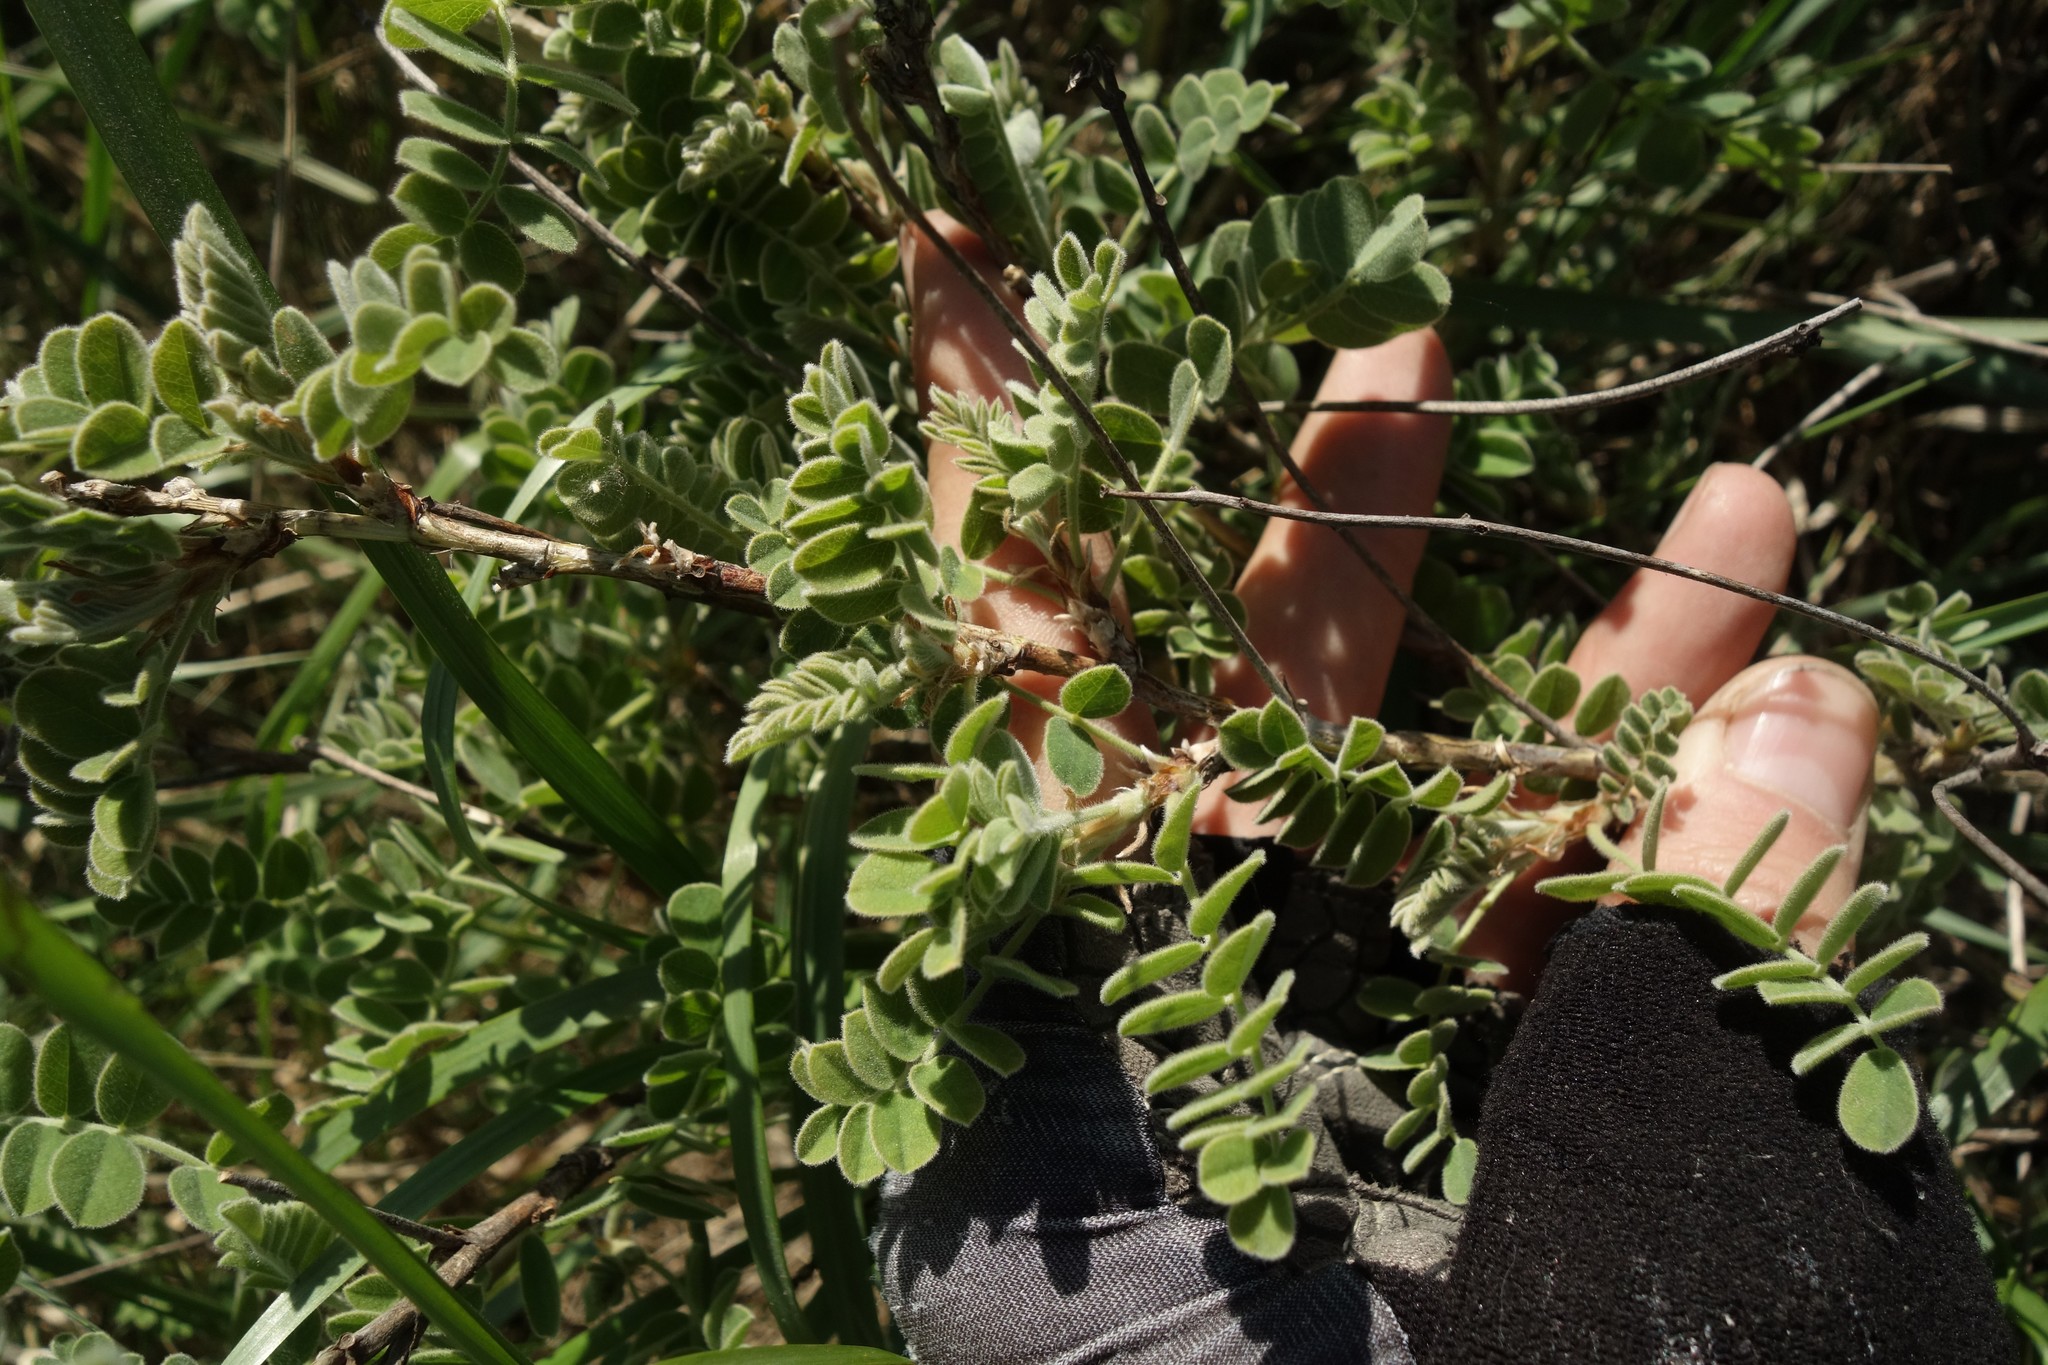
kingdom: Plantae
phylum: Tracheophyta
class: Magnoliopsida
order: Fabales
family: Fabaceae
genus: Calophaca
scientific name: Calophaca wolgarica
